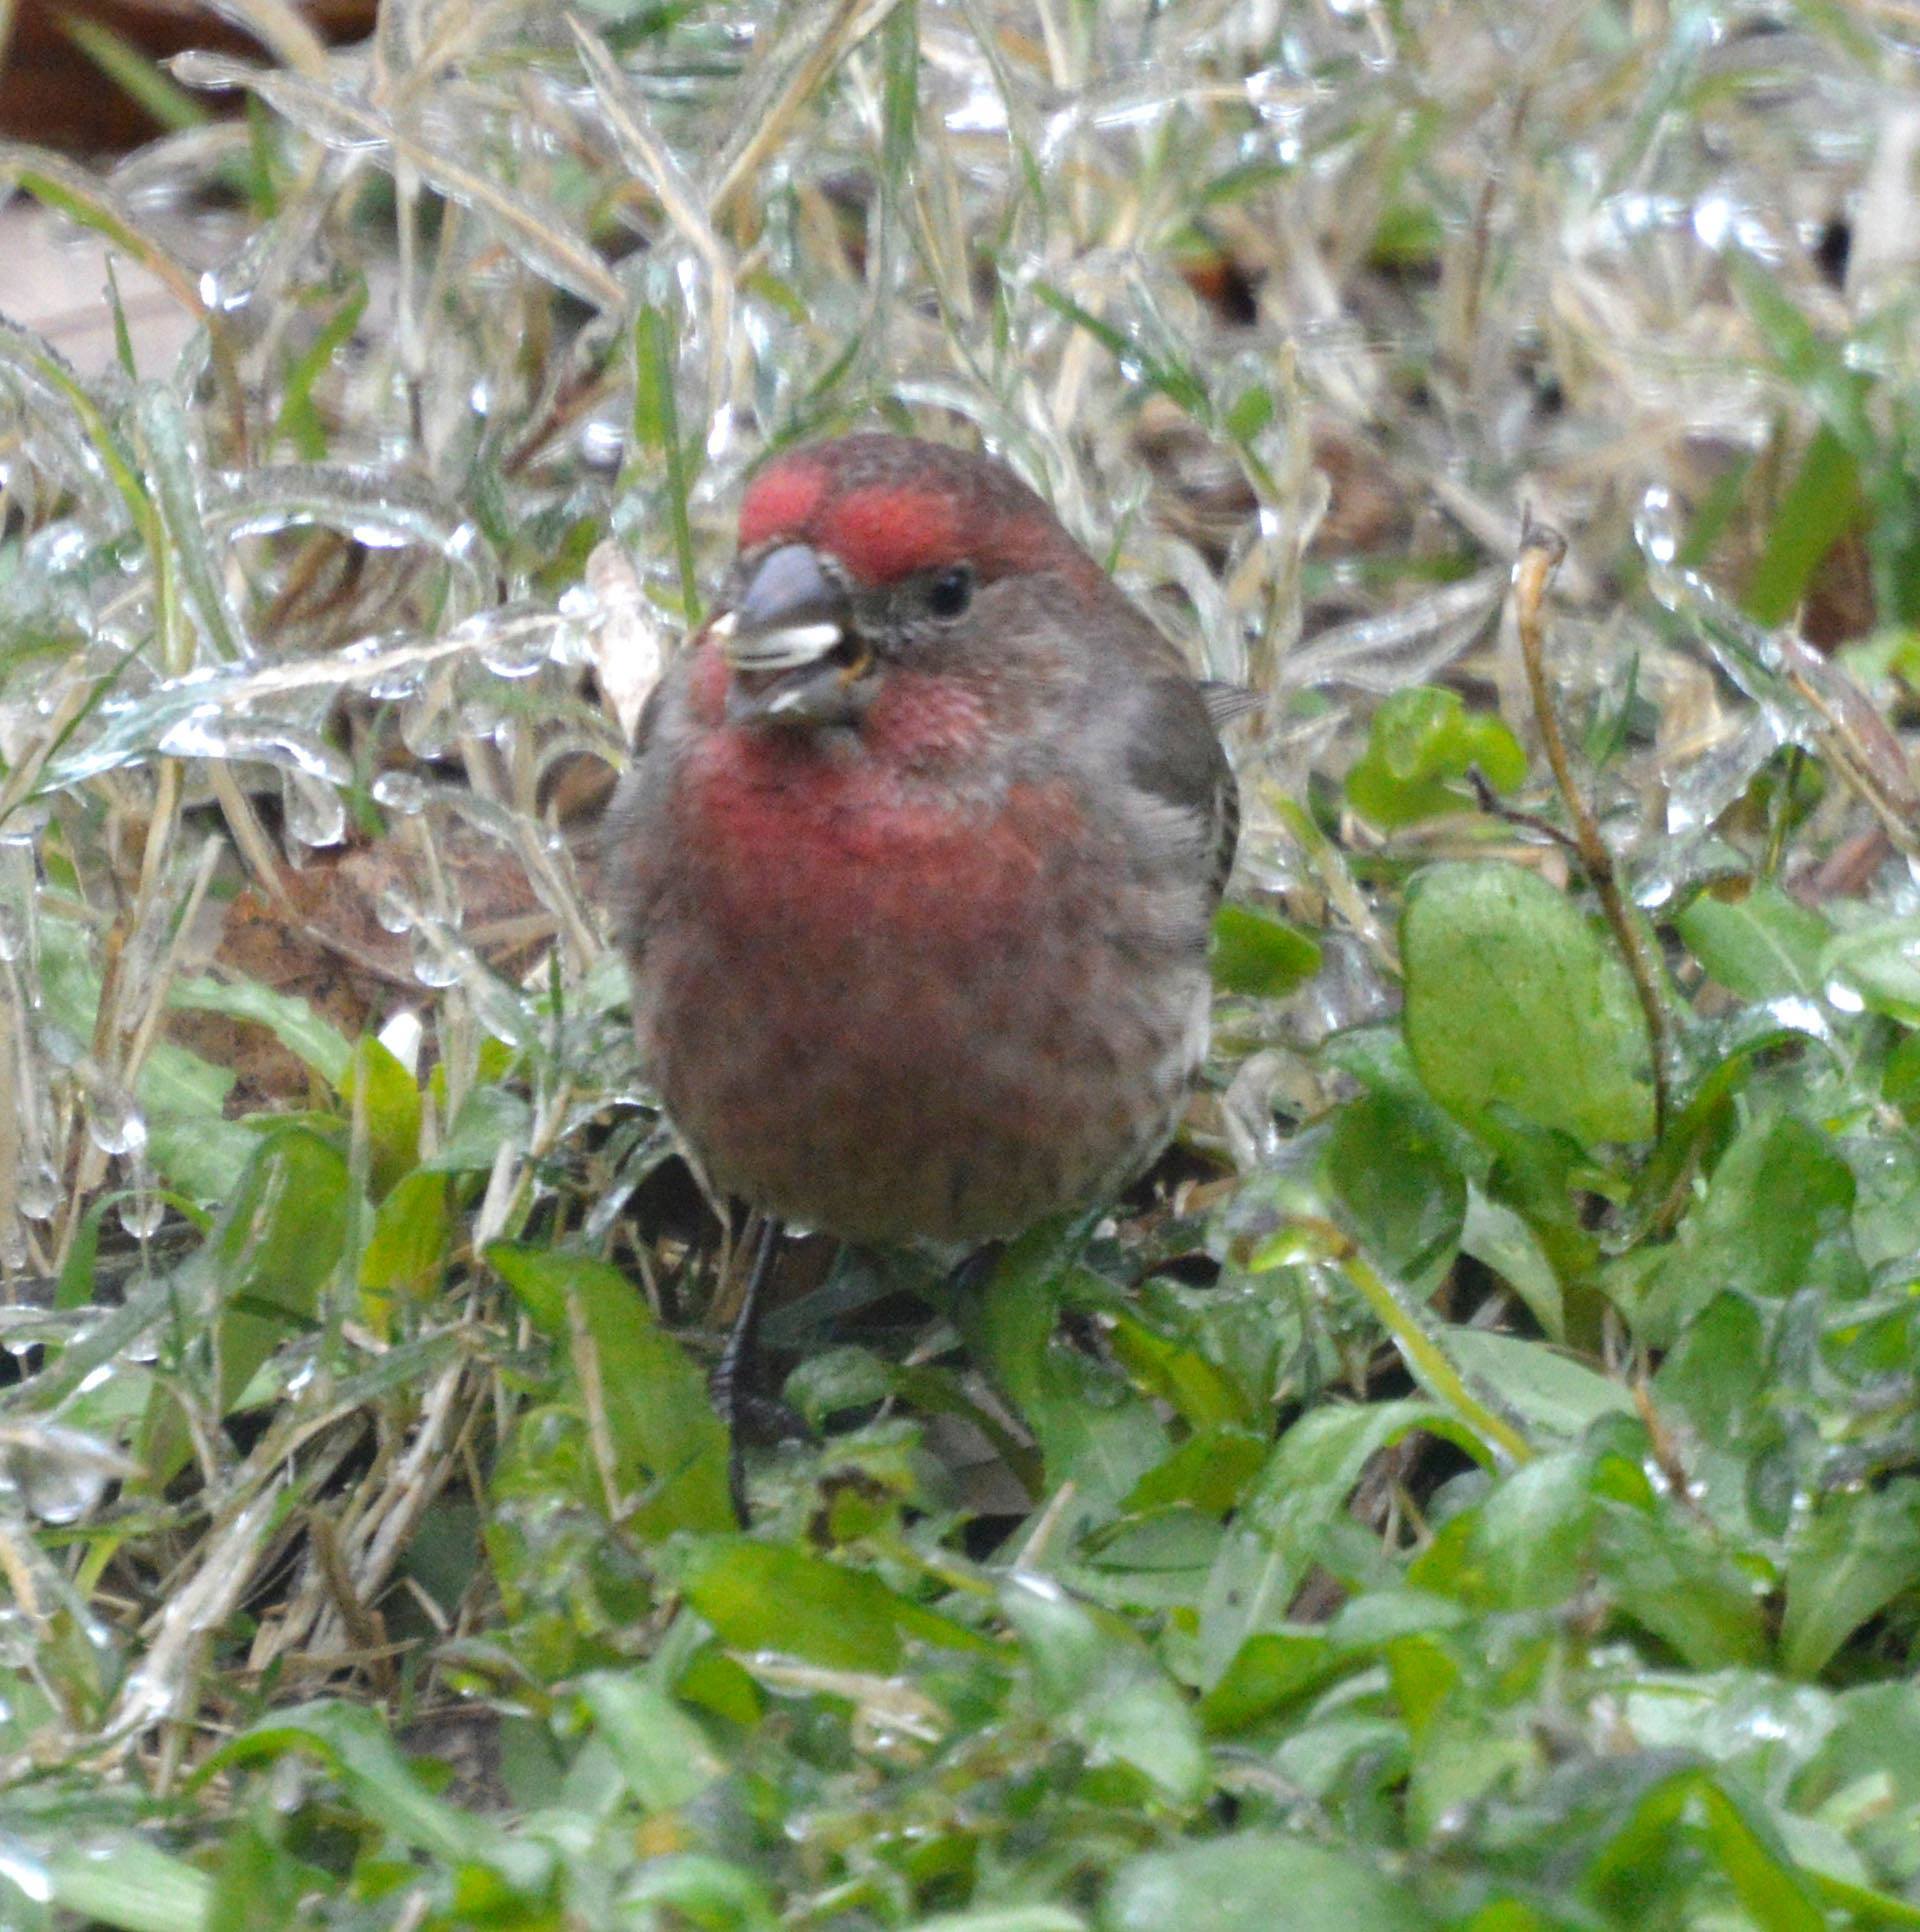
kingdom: Animalia
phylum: Chordata
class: Aves
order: Passeriformes
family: Fringillidae
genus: Haemorhous
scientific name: Haemorhous mexicanus
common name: House finch
